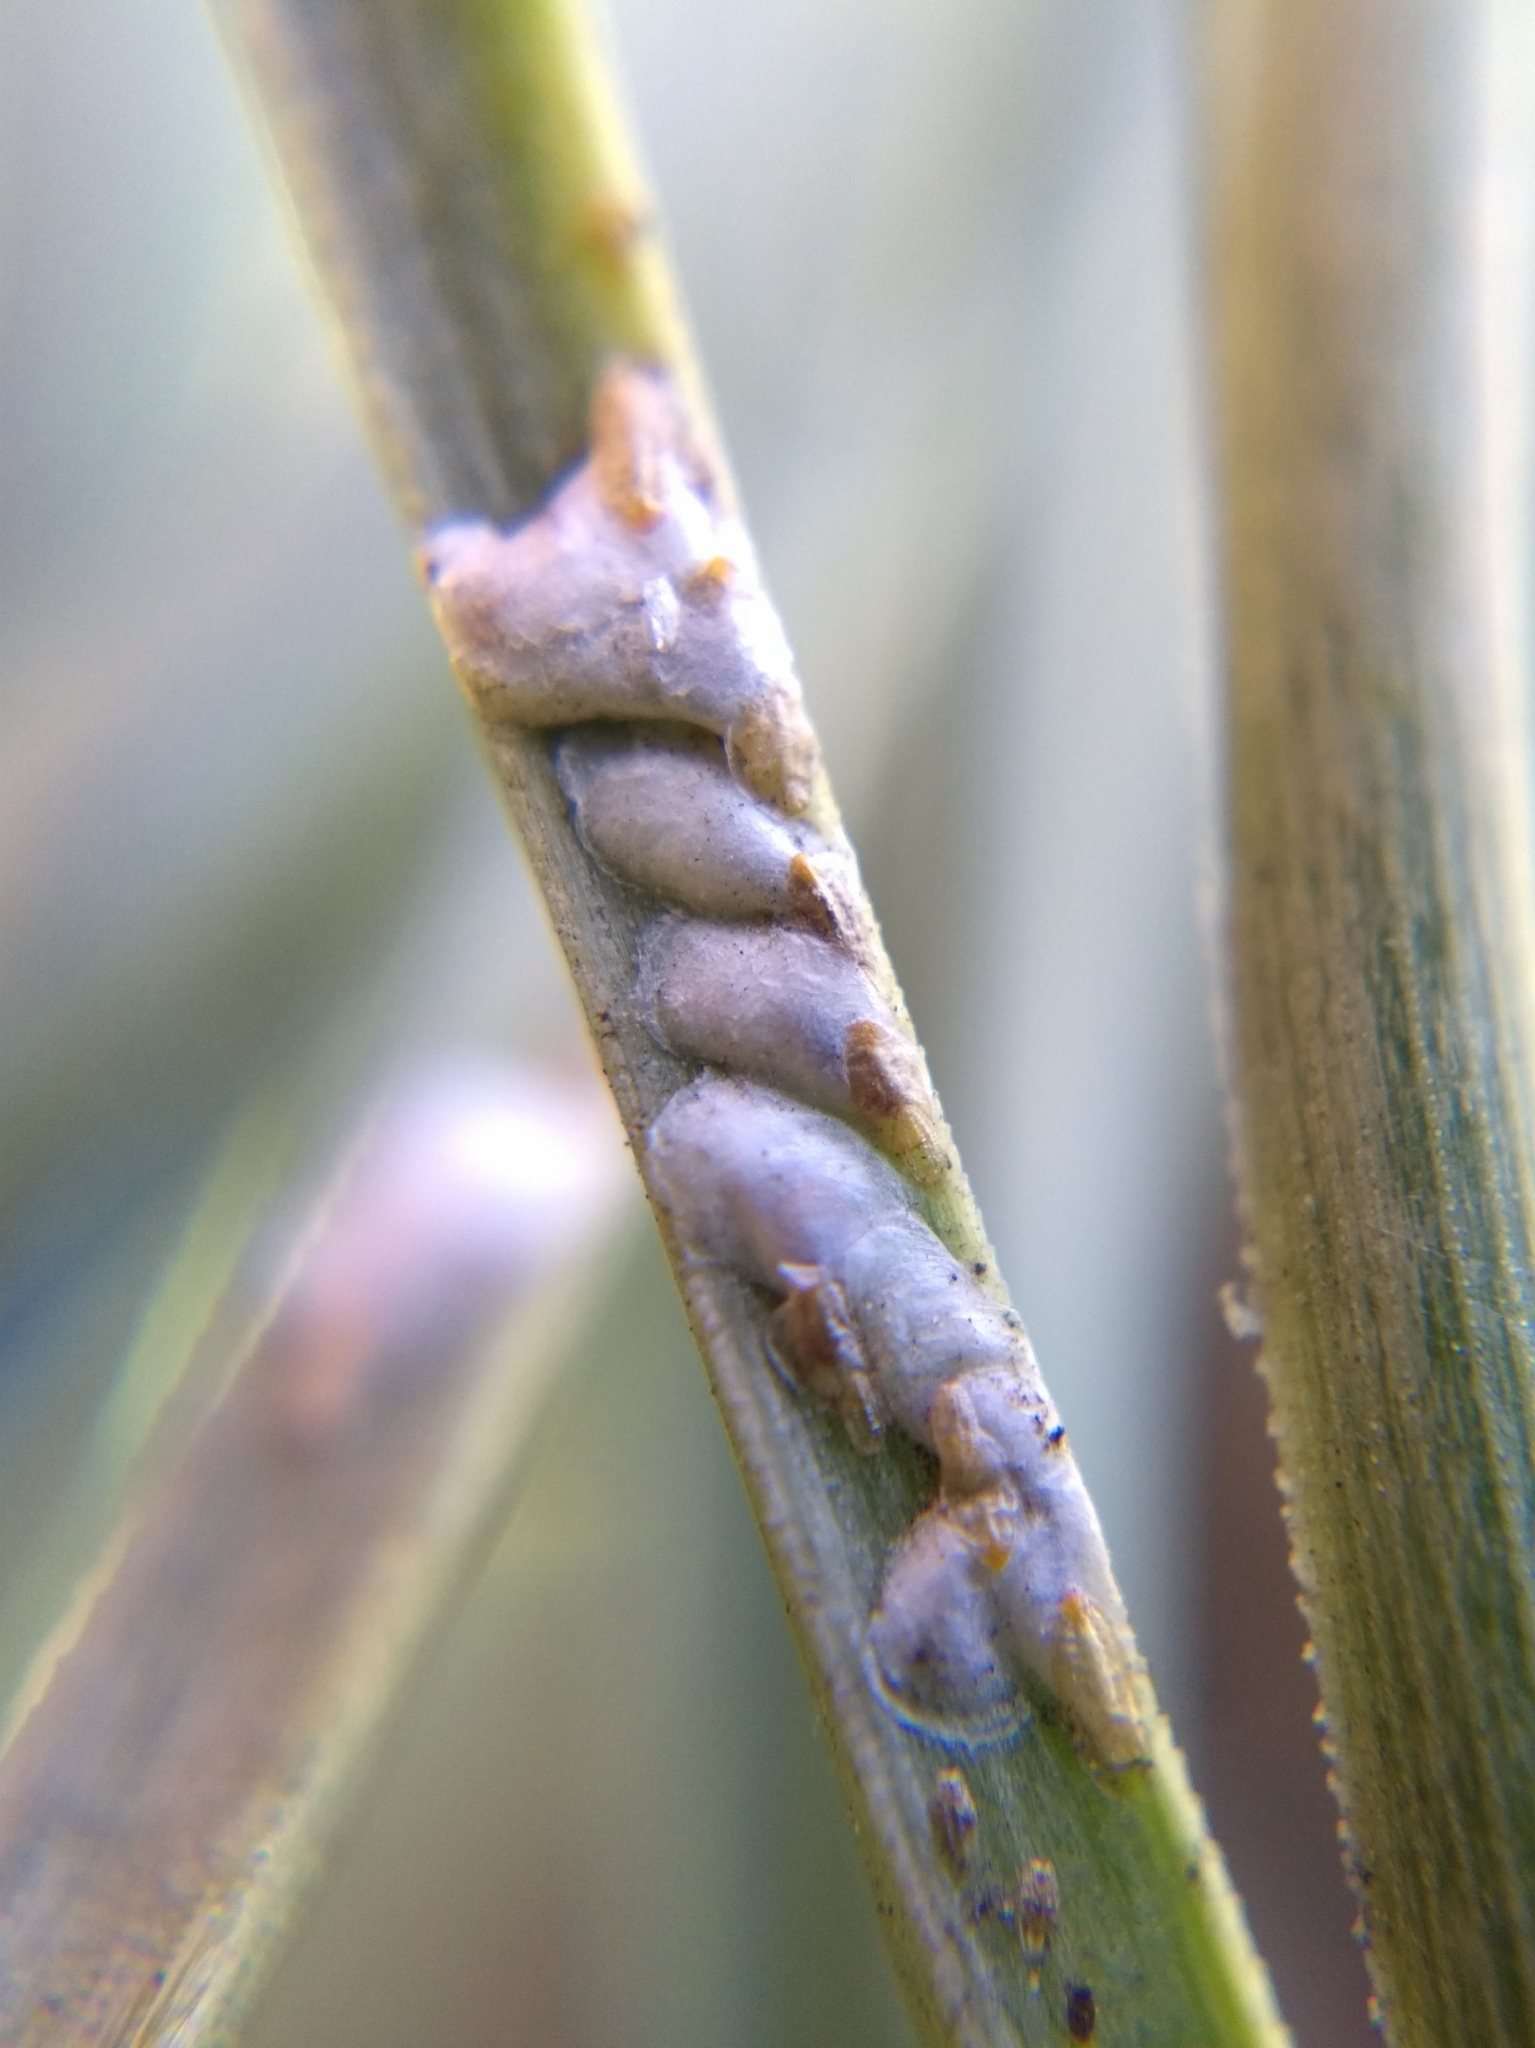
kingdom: Animalia
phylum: Arthropoda
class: Insecta
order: Hemiptera
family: Diaspididae
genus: Chionaspis
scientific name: Chionaspis pinifoliae
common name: Pine leaf scale
